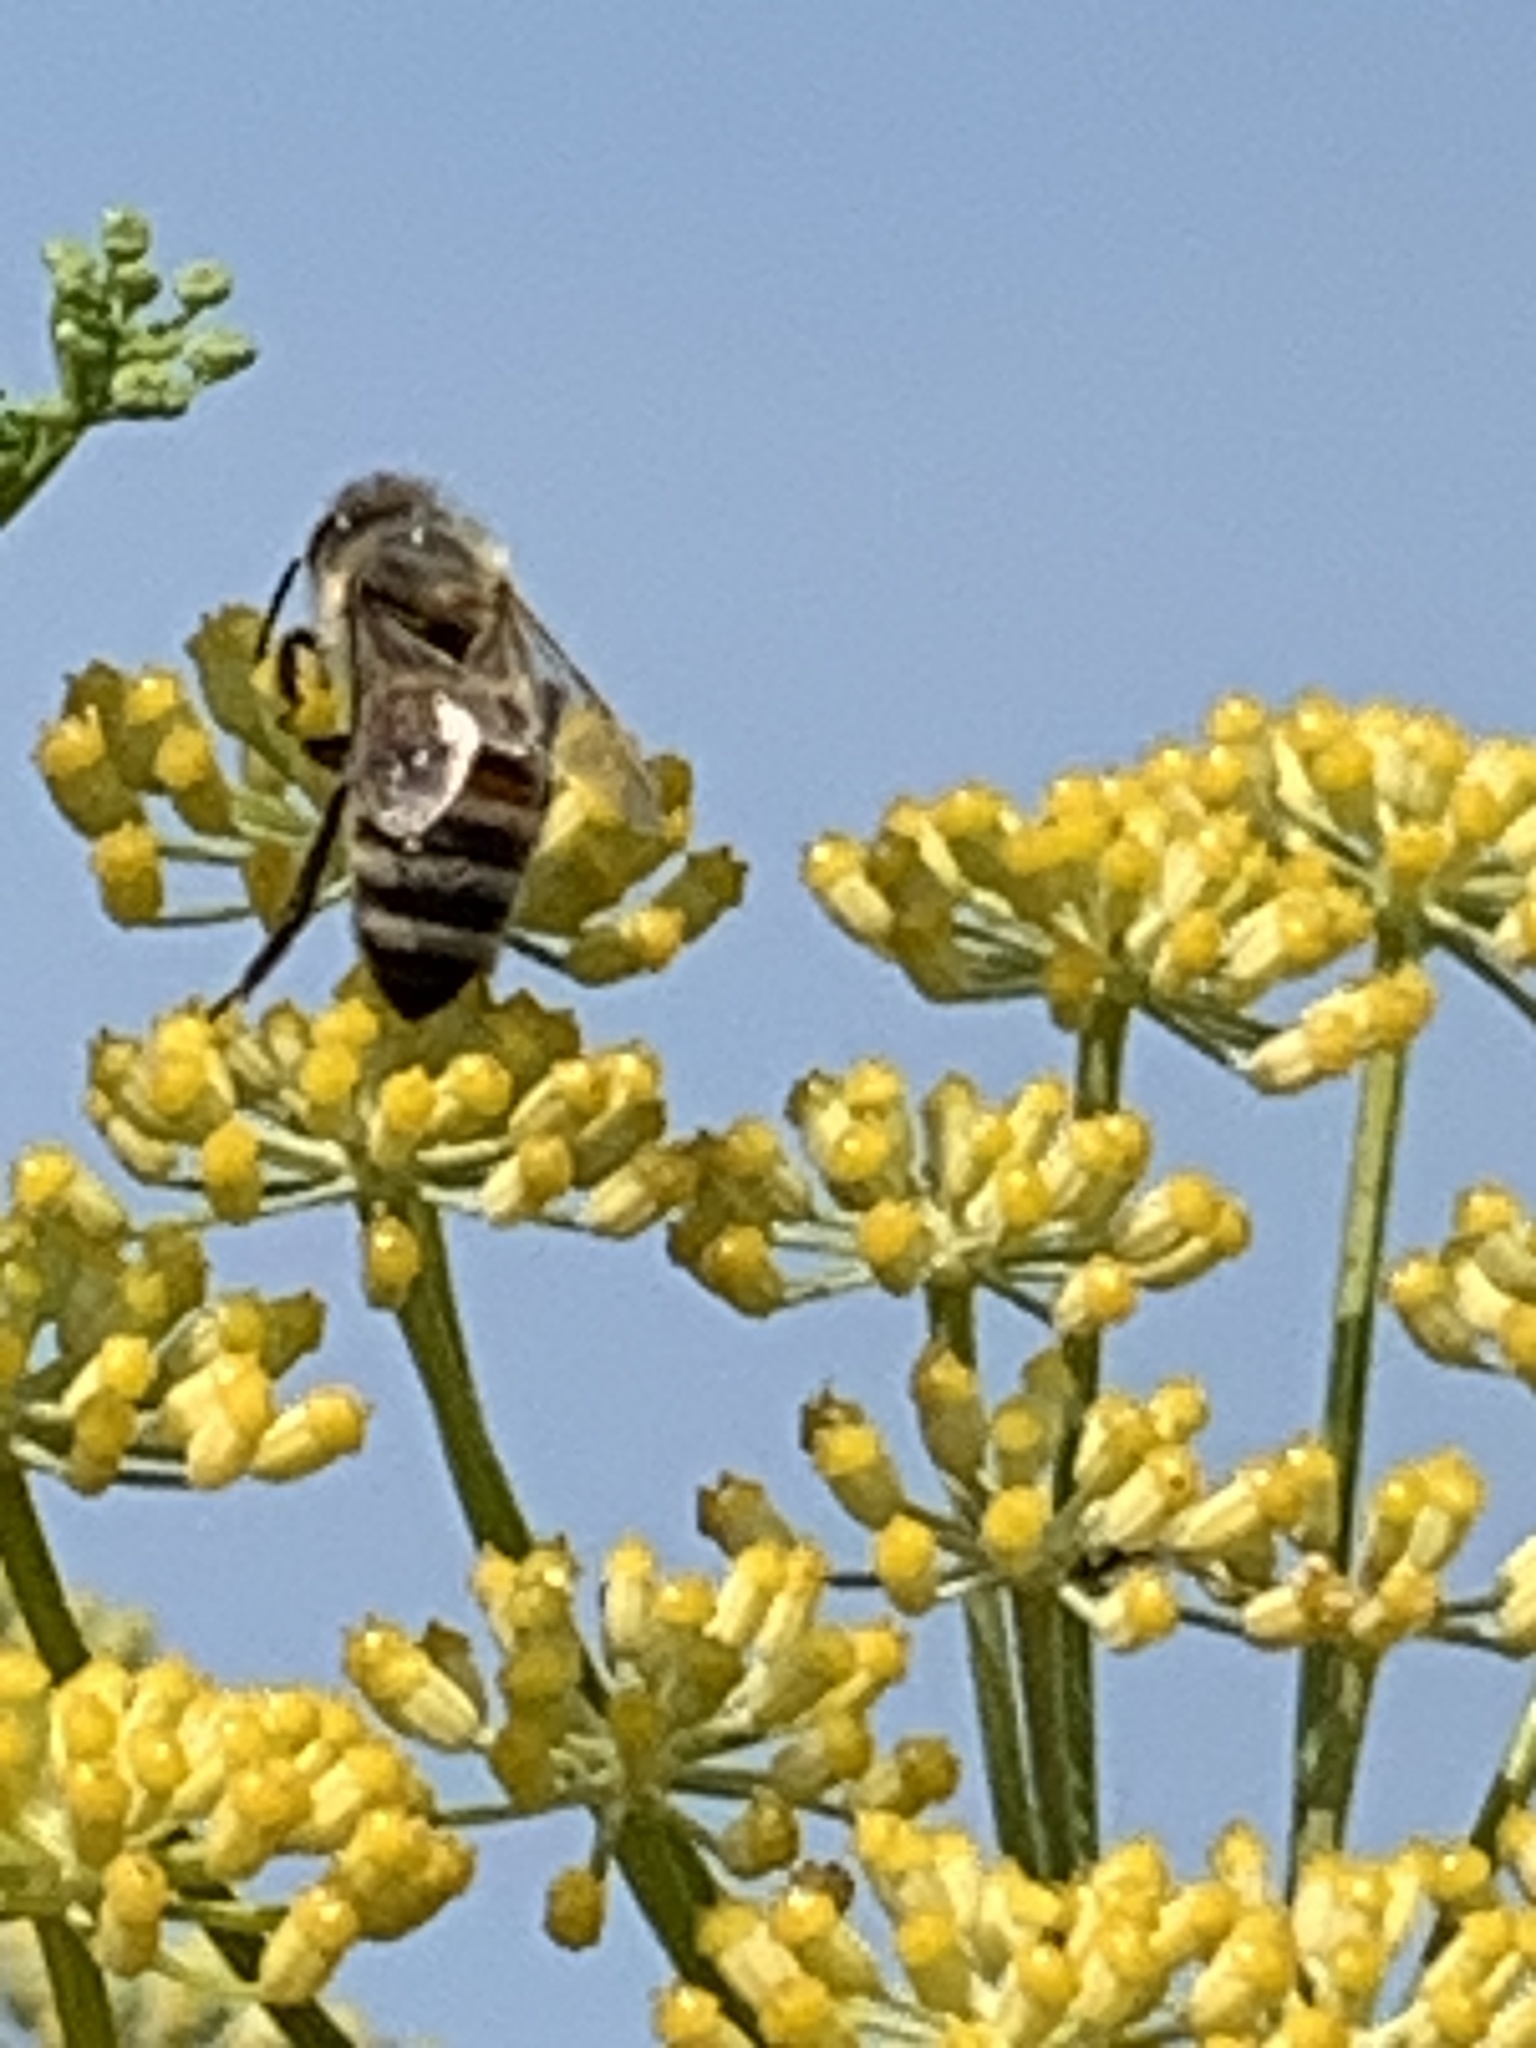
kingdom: Animalia
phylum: Arthropoda
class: Insecta
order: Hymenoptera
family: Apidae
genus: Apis
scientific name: Apis mellifera
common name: Honey bee
